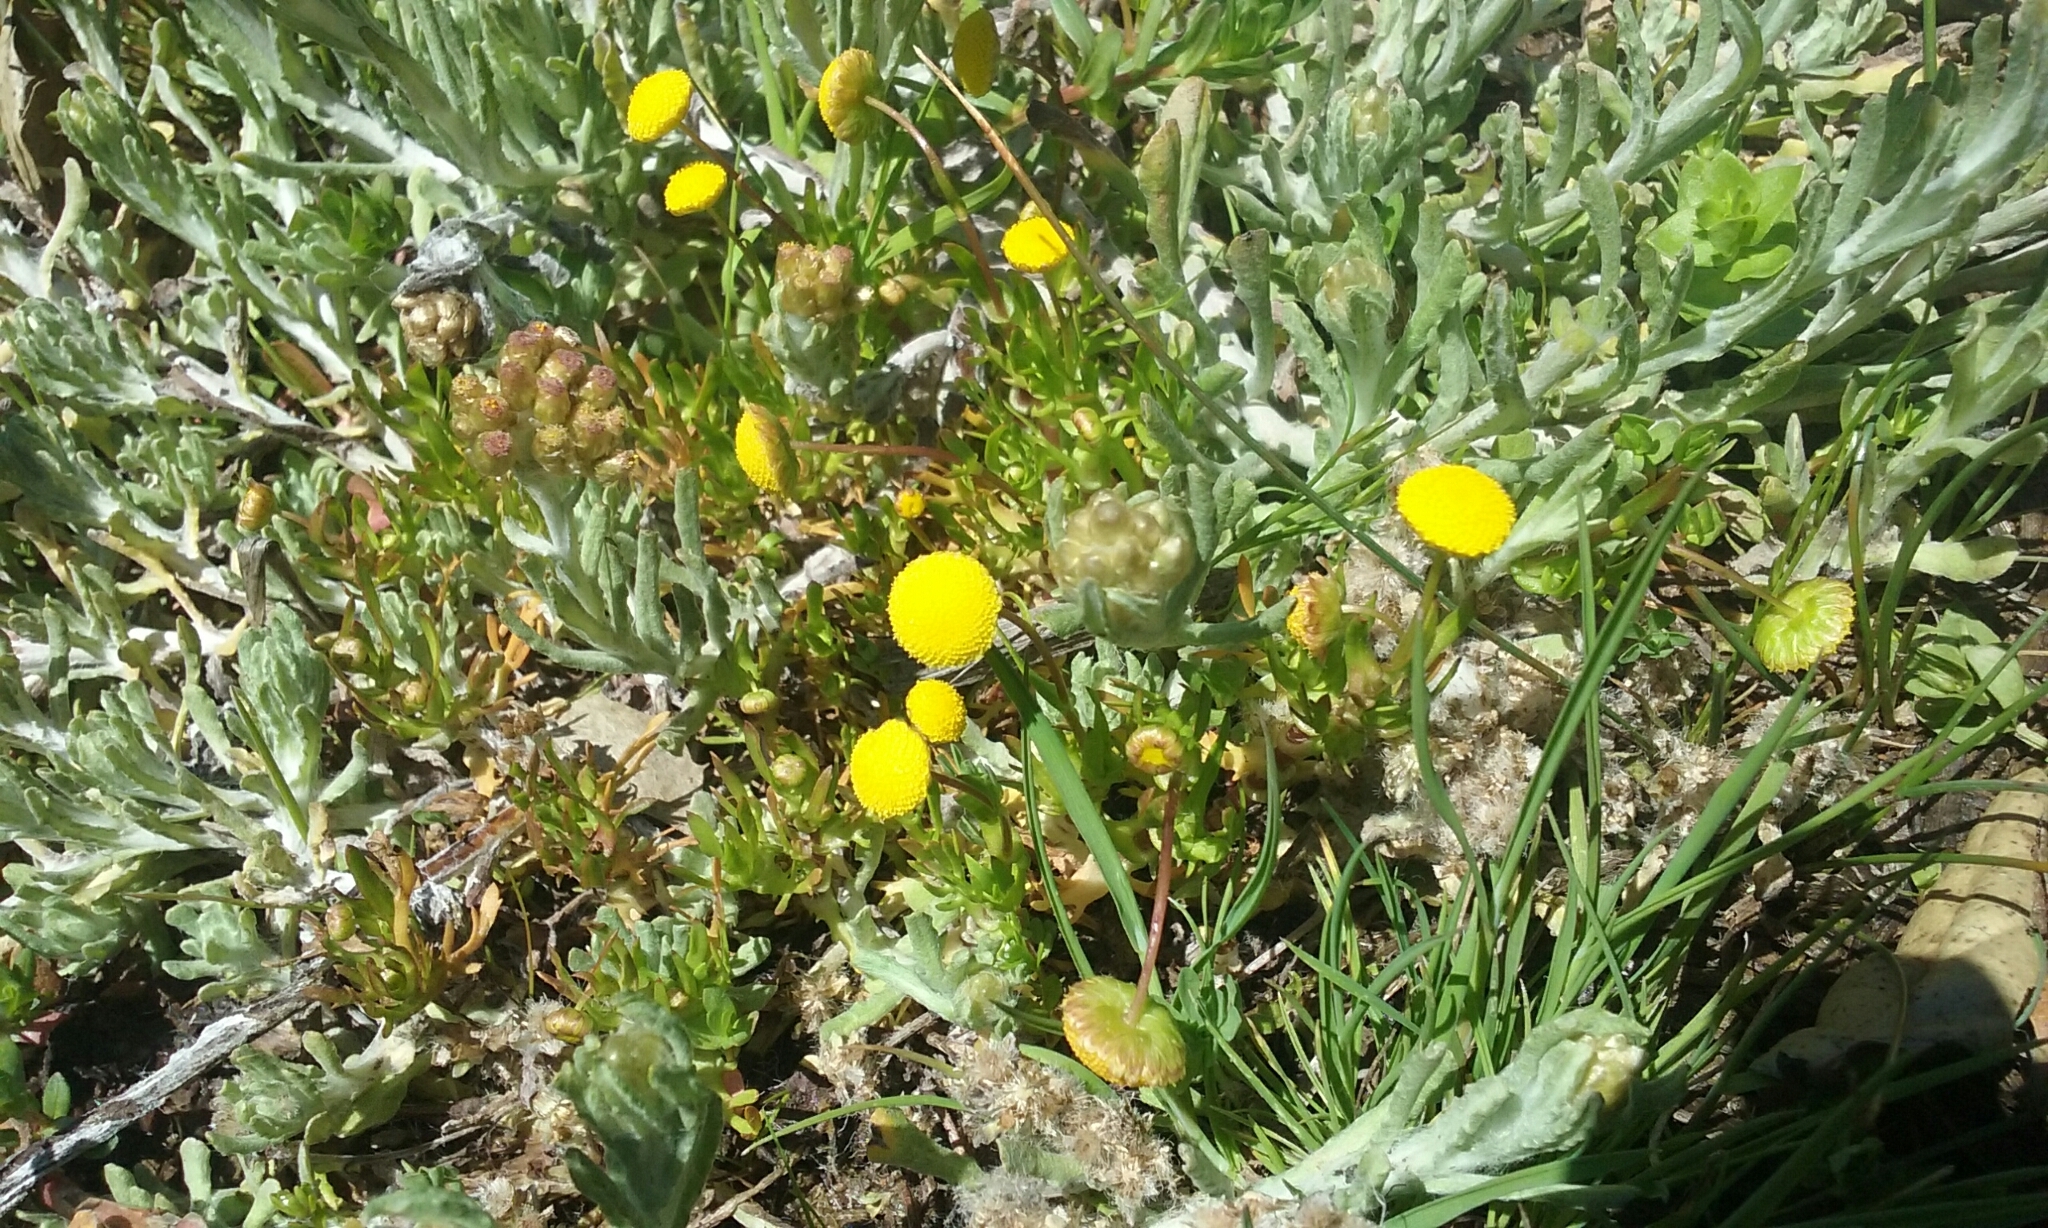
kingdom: Plantae
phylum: Tracheophyta
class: Magnoliopsida
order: Asterales
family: Asteraceae
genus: Cotula
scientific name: Cotula coronopifolia
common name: Buttonweed
